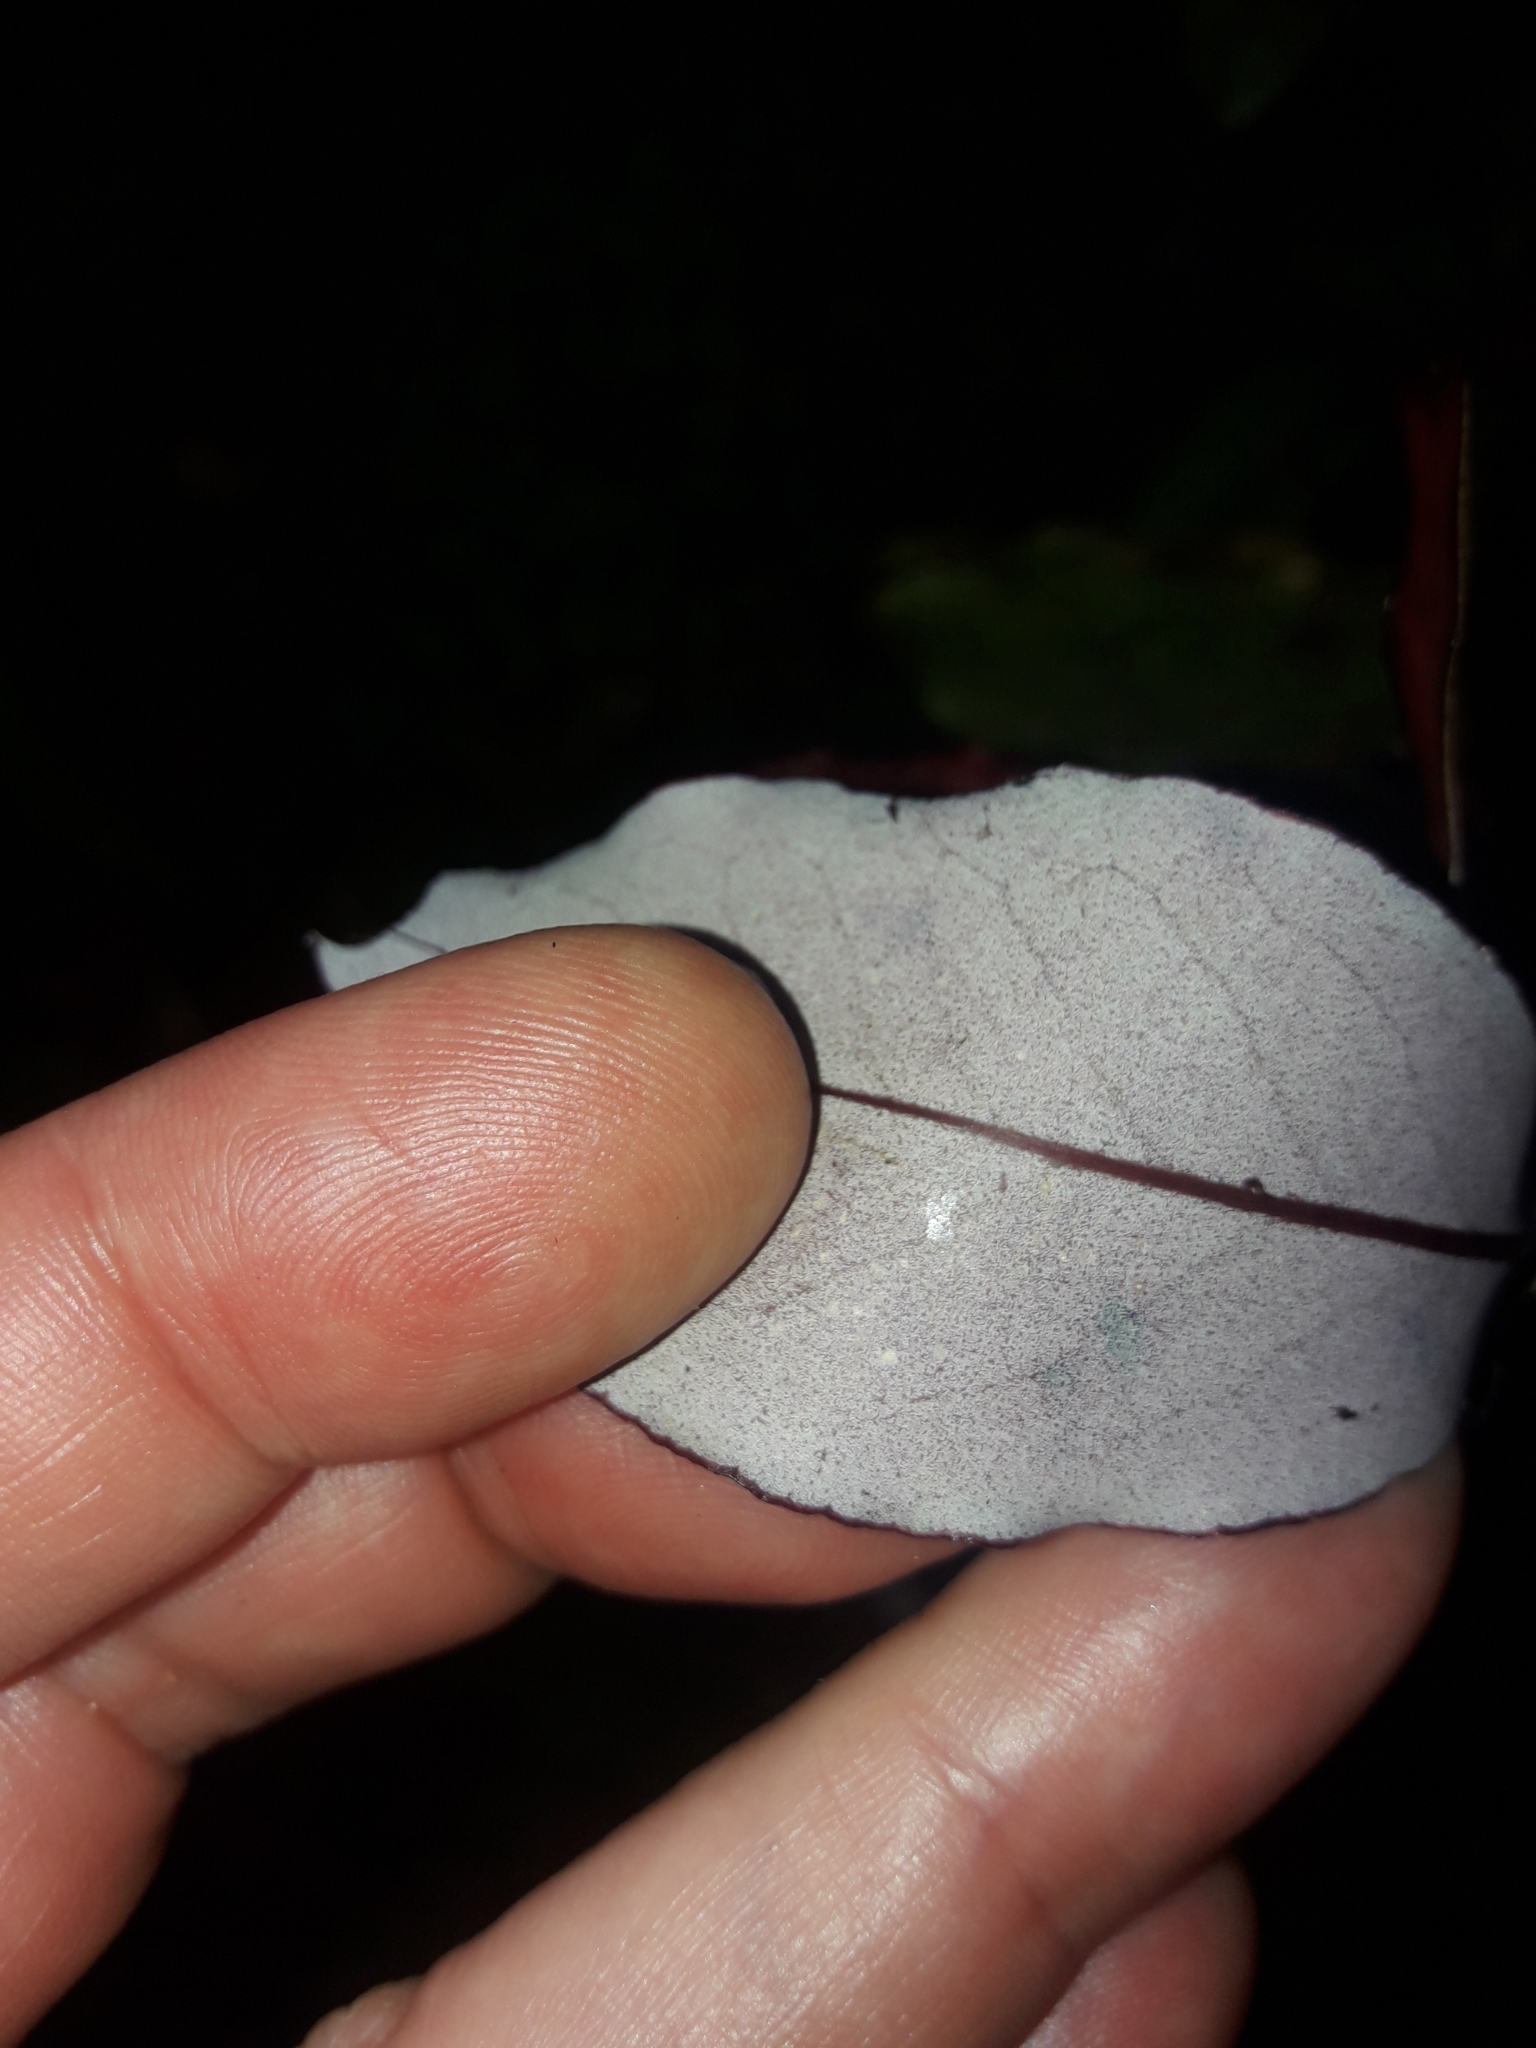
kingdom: Plantae
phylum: Tracheophyta
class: Magnoliopsida
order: Canellales
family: Winteraceae
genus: Pseudowintera
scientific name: Pseudowintera colorata
